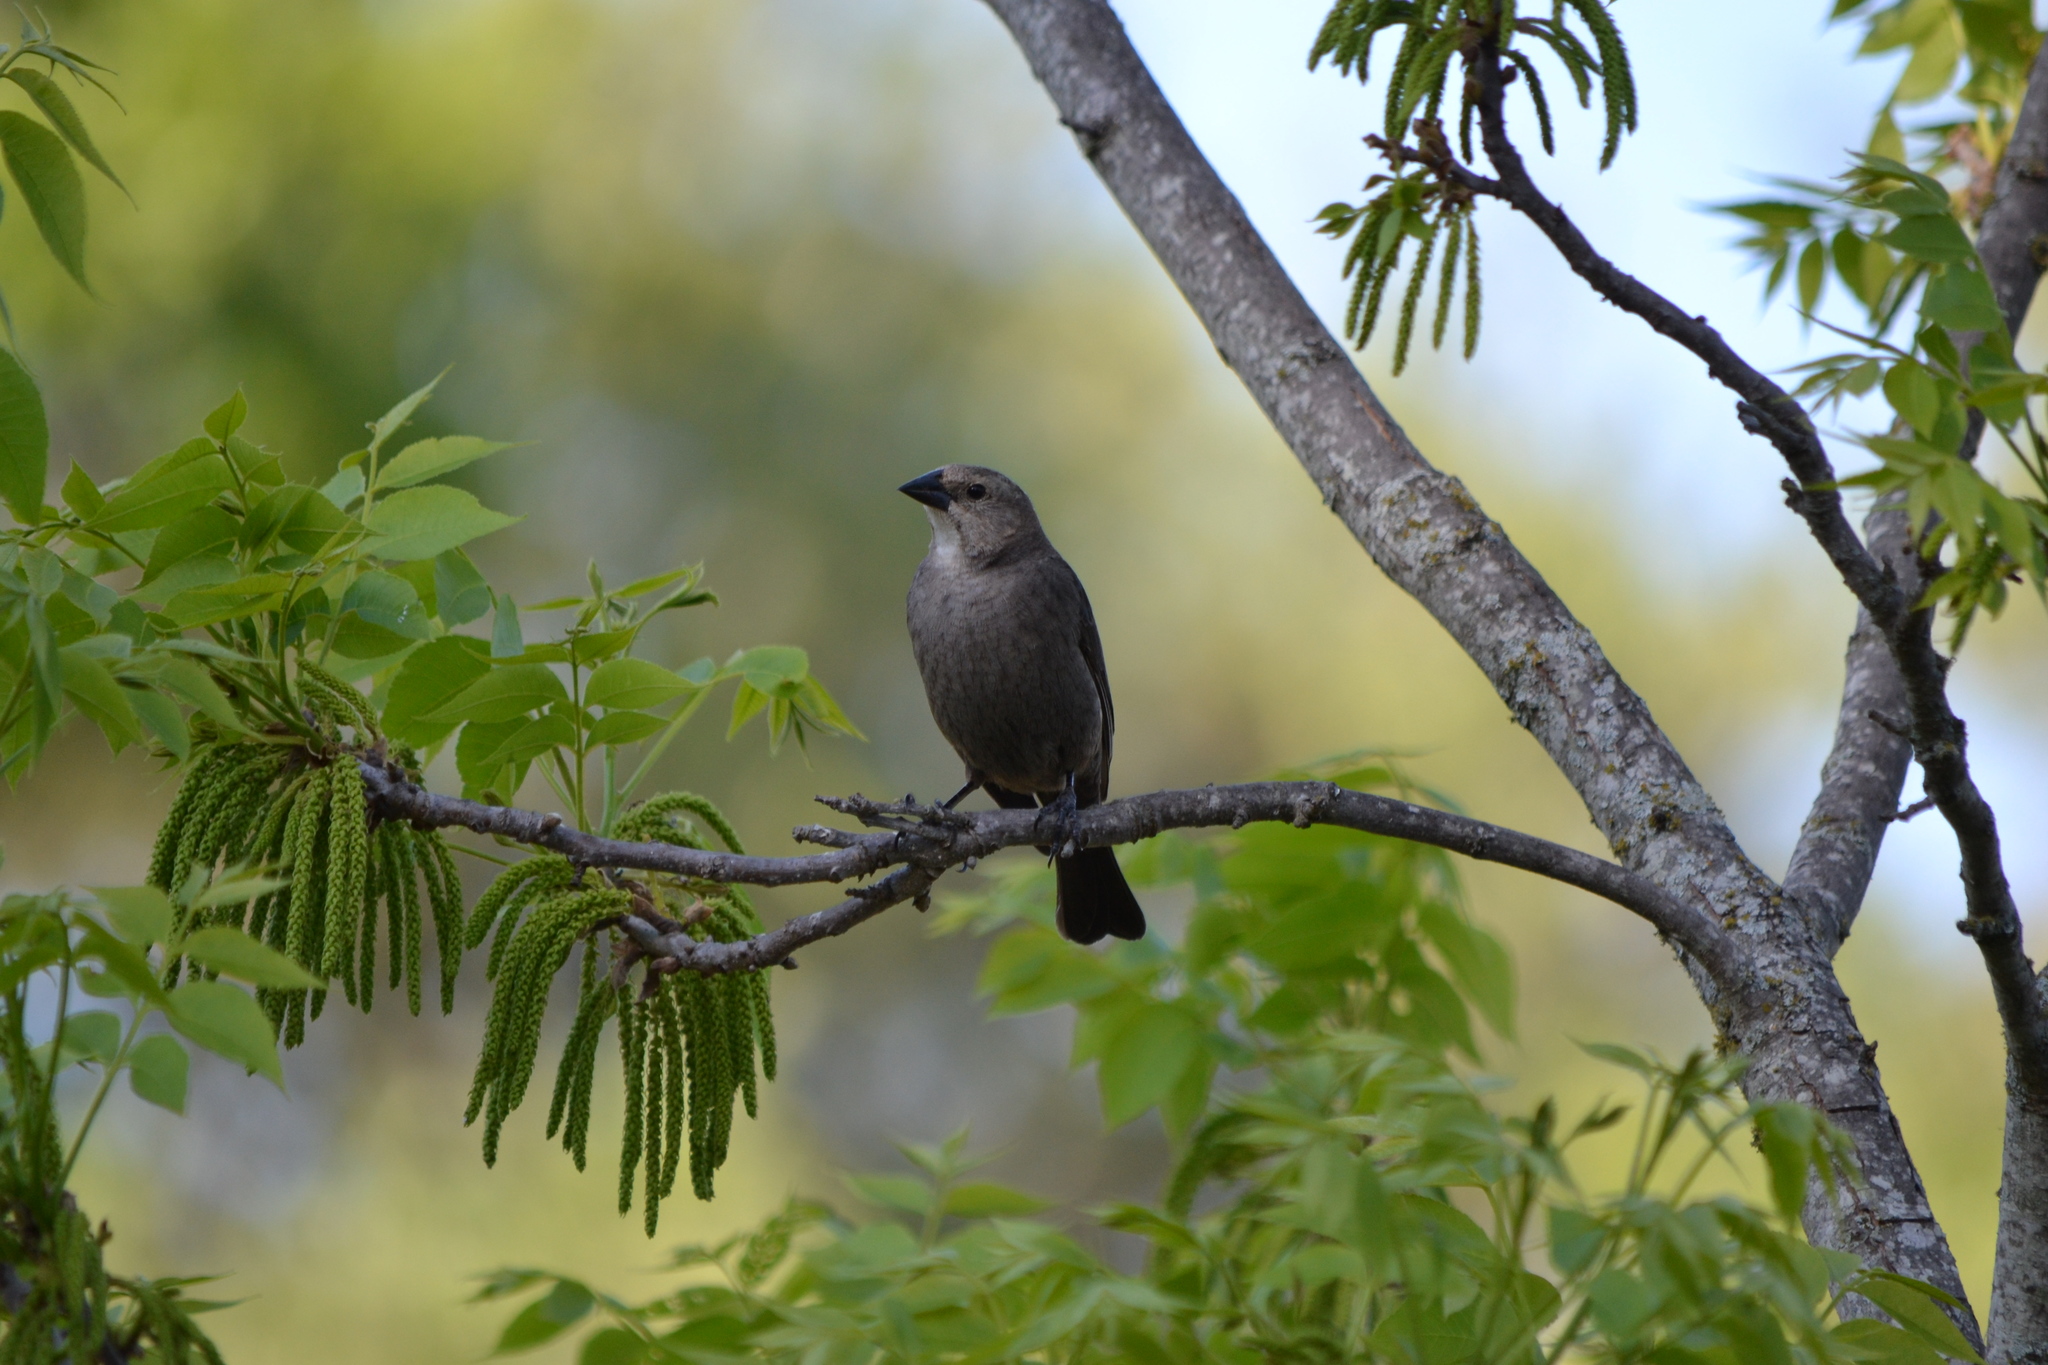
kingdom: Animalia
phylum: Chordata
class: Aves
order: Passeriformes
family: Icteridae
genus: Molothrus
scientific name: Molothrus ater
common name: Brown-headed cowbird
